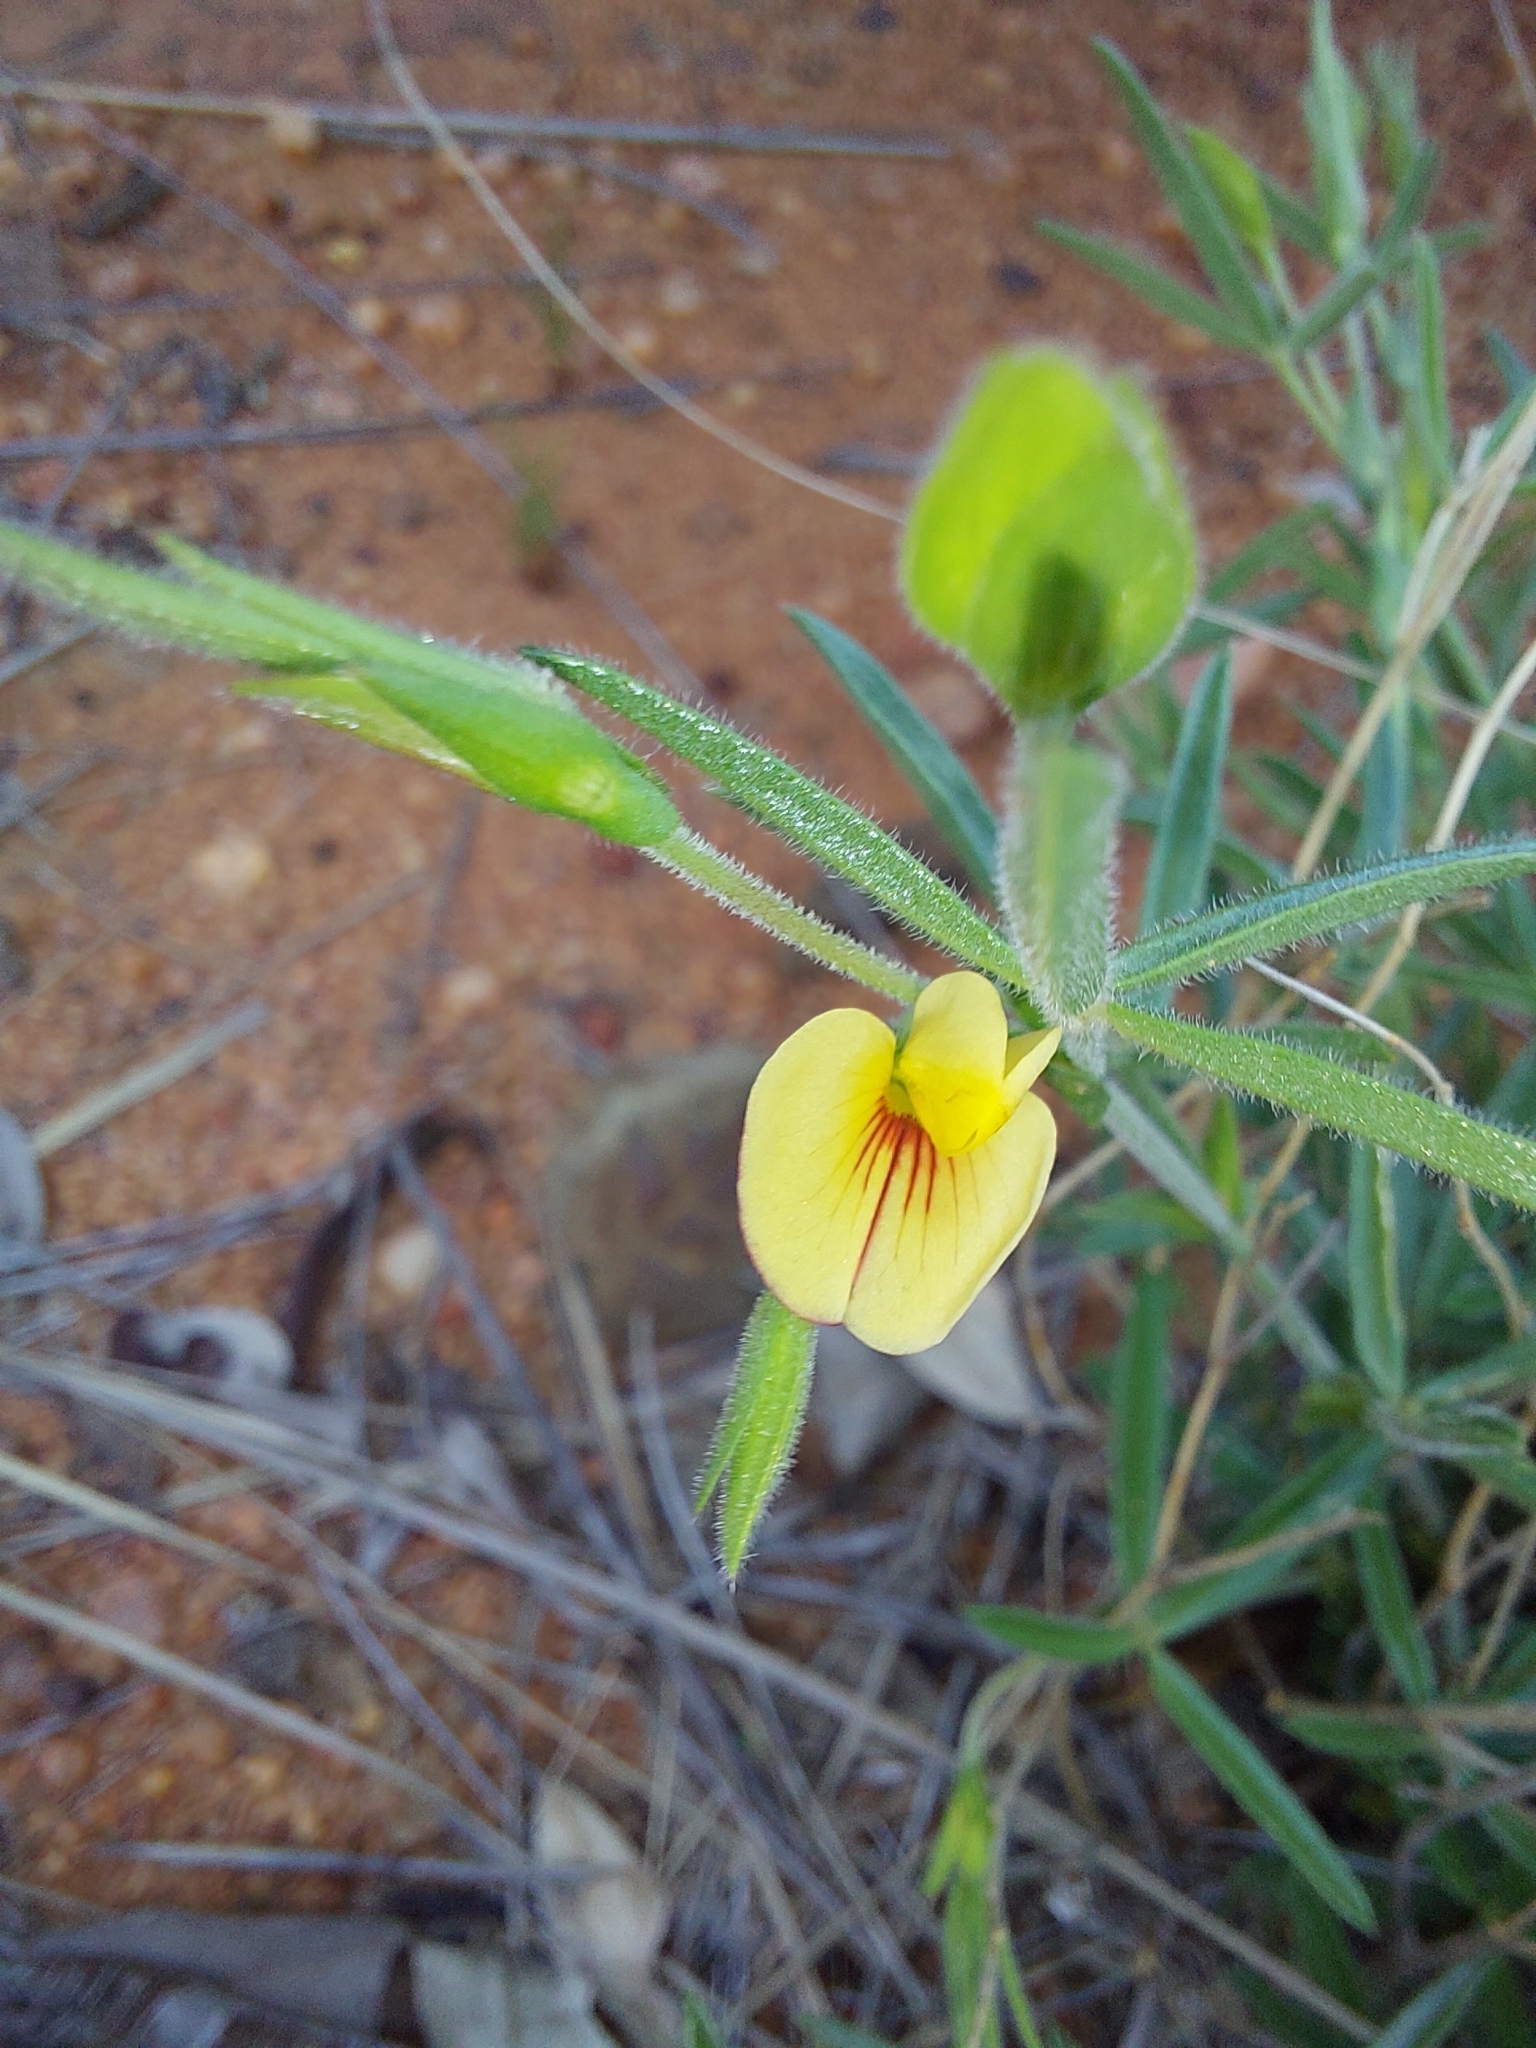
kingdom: Plantae
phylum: Tracheophyta
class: Magnoliopsida
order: Fabales
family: Fabaceae
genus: Zornia
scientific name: Zornia linearis
